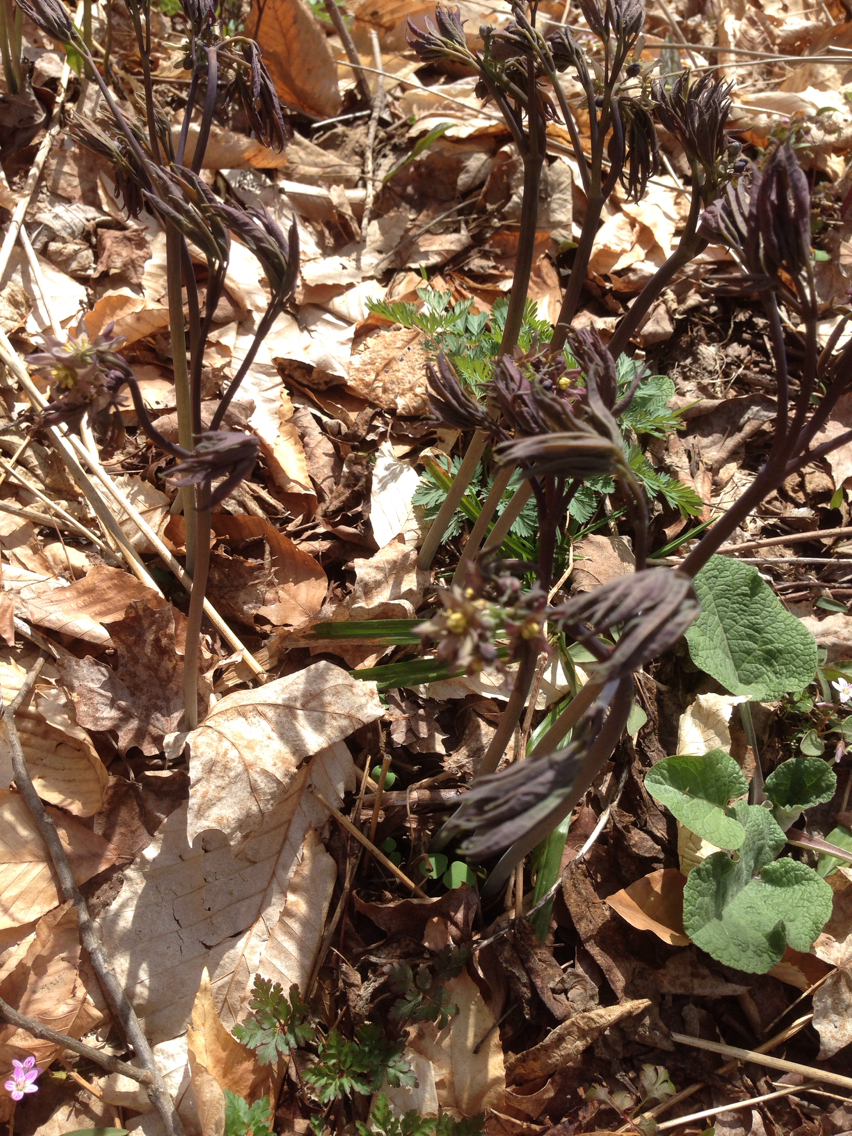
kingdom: Plantae
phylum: Tracheophyta
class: Magnoliopsida
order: Ranunculales
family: Berberidaceae
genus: Caulophyllum
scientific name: Caulophyllum giganteum
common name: Blue cohosh
